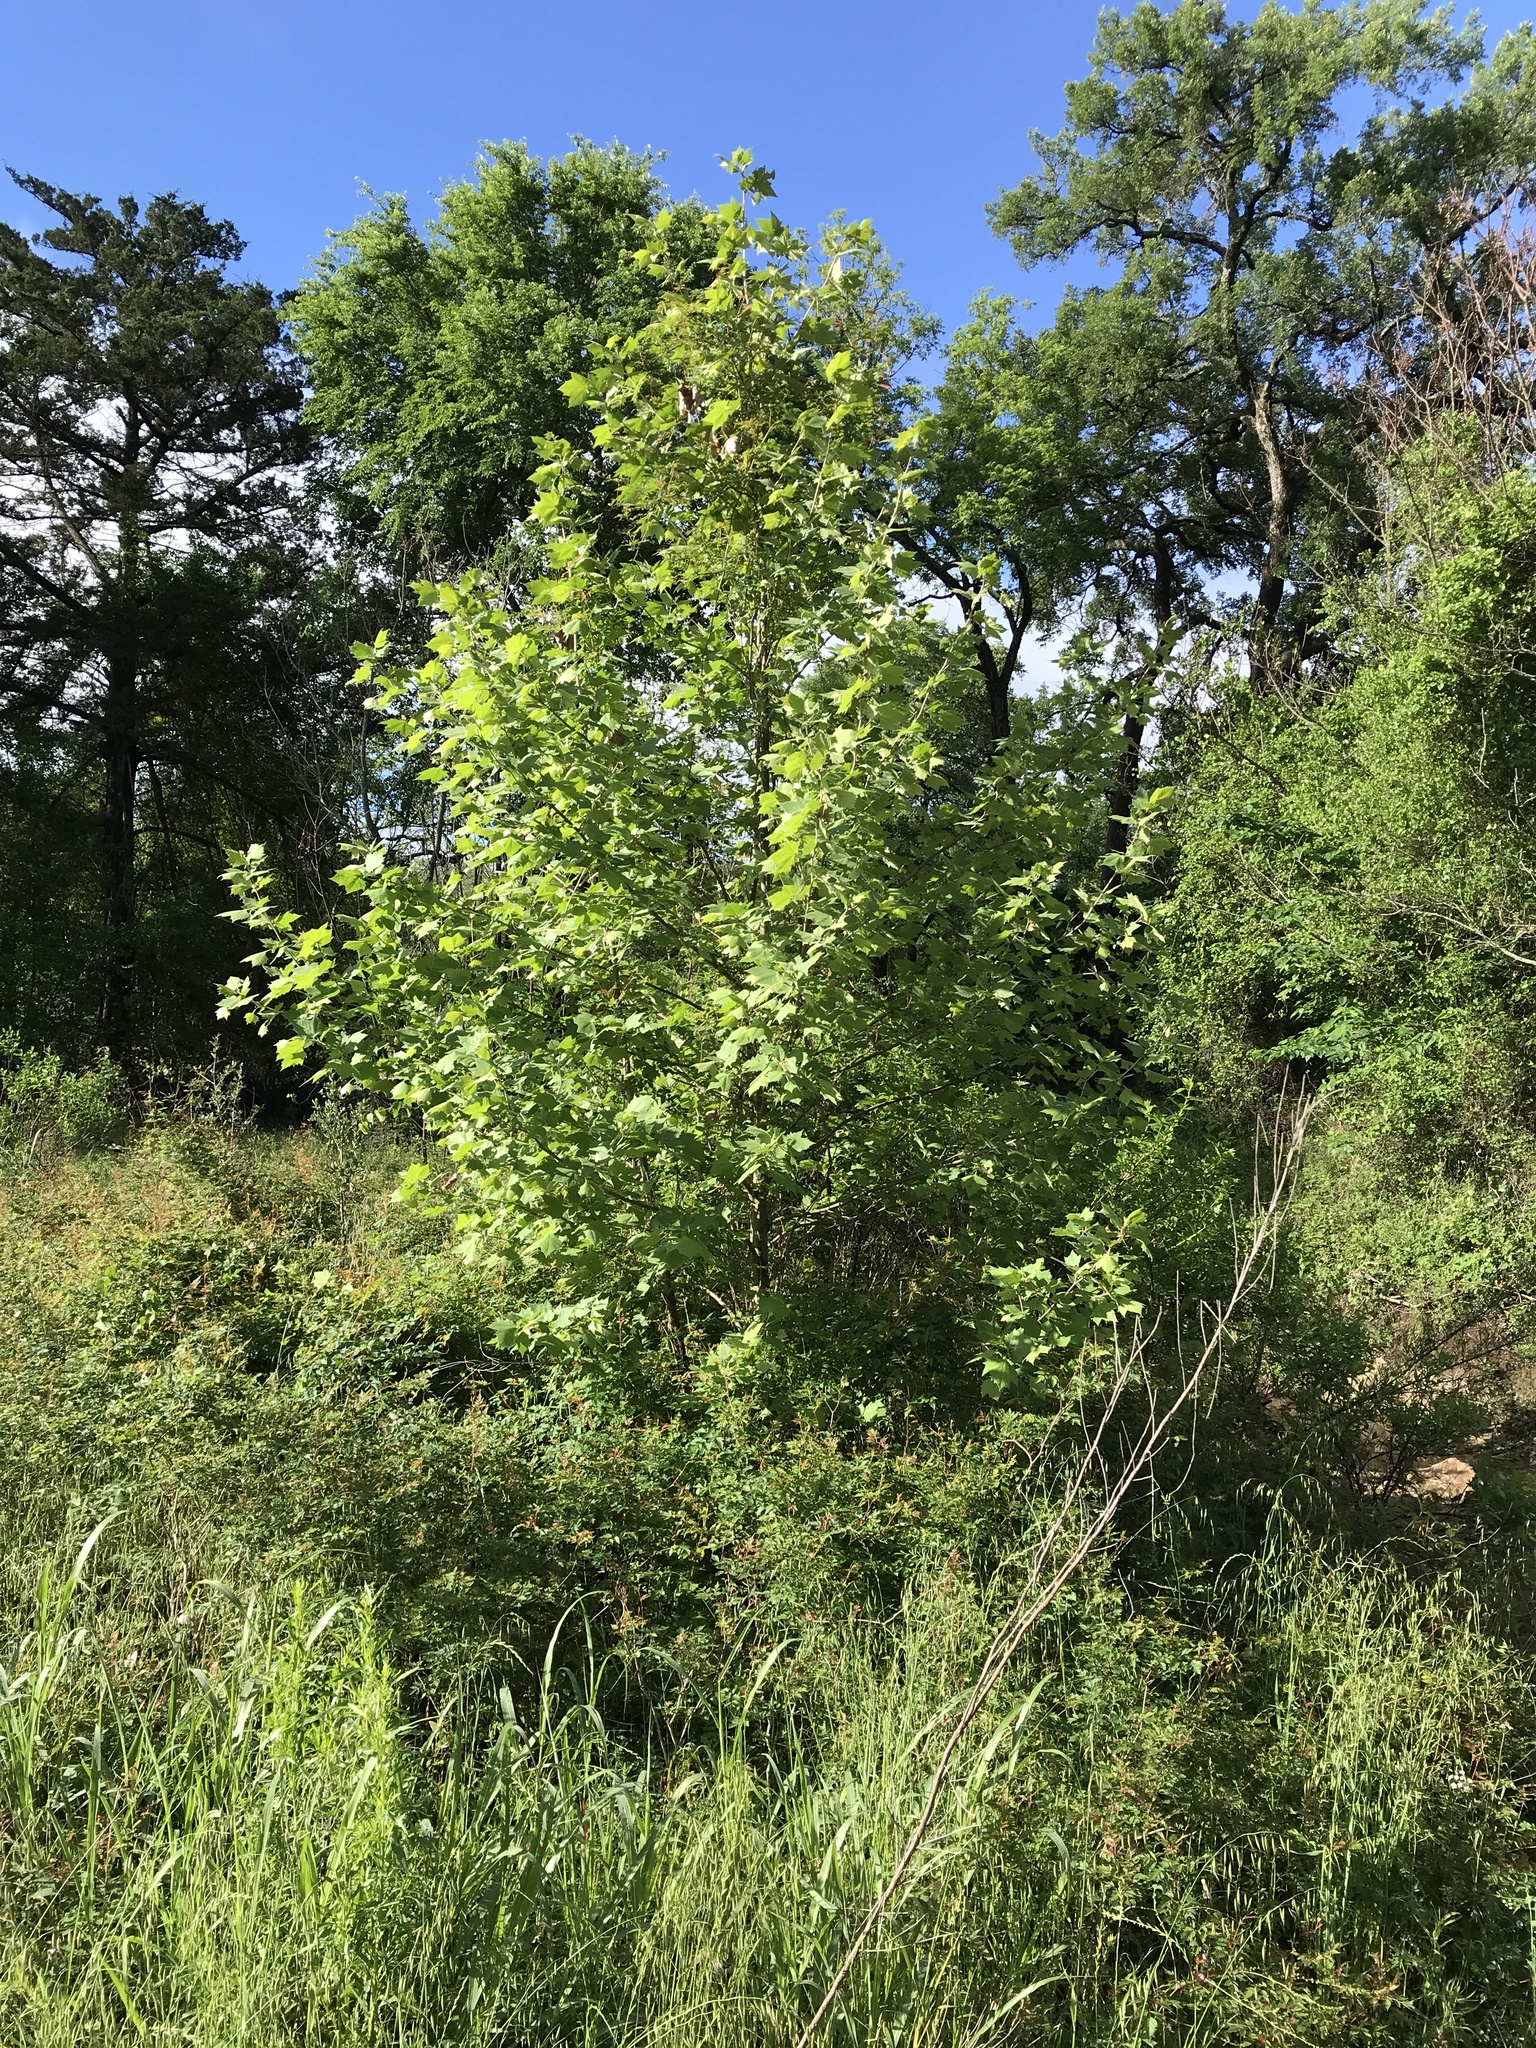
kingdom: Plantae
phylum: Tracheophyta
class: Magnoliopsida
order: Proteales
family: Platanaceae
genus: Platanus
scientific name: Platanus occidentalis
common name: American sycamore
